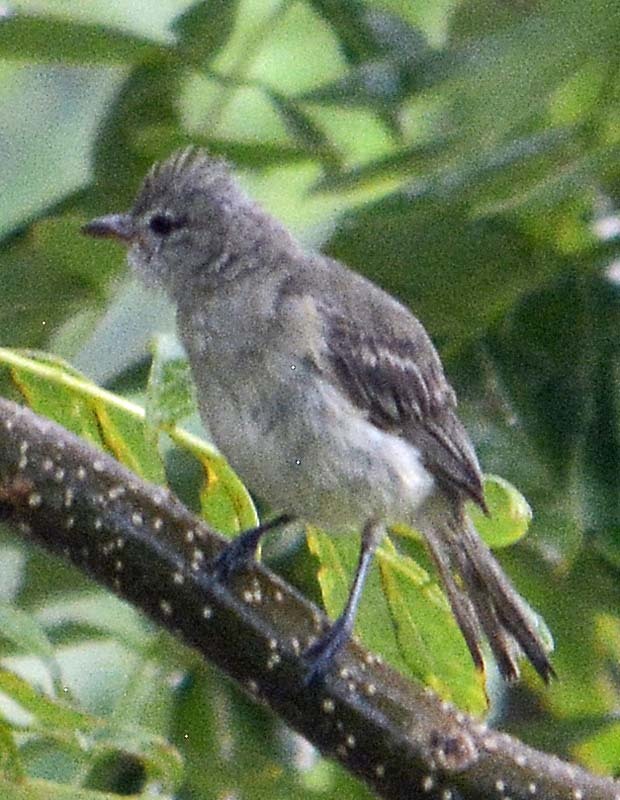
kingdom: Animalia
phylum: Chordata
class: Aves
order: Passeriformes
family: Tyrannidae
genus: Camptostoma
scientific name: Camptostoma imberbe
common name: Northern beardless-tyrannulet
